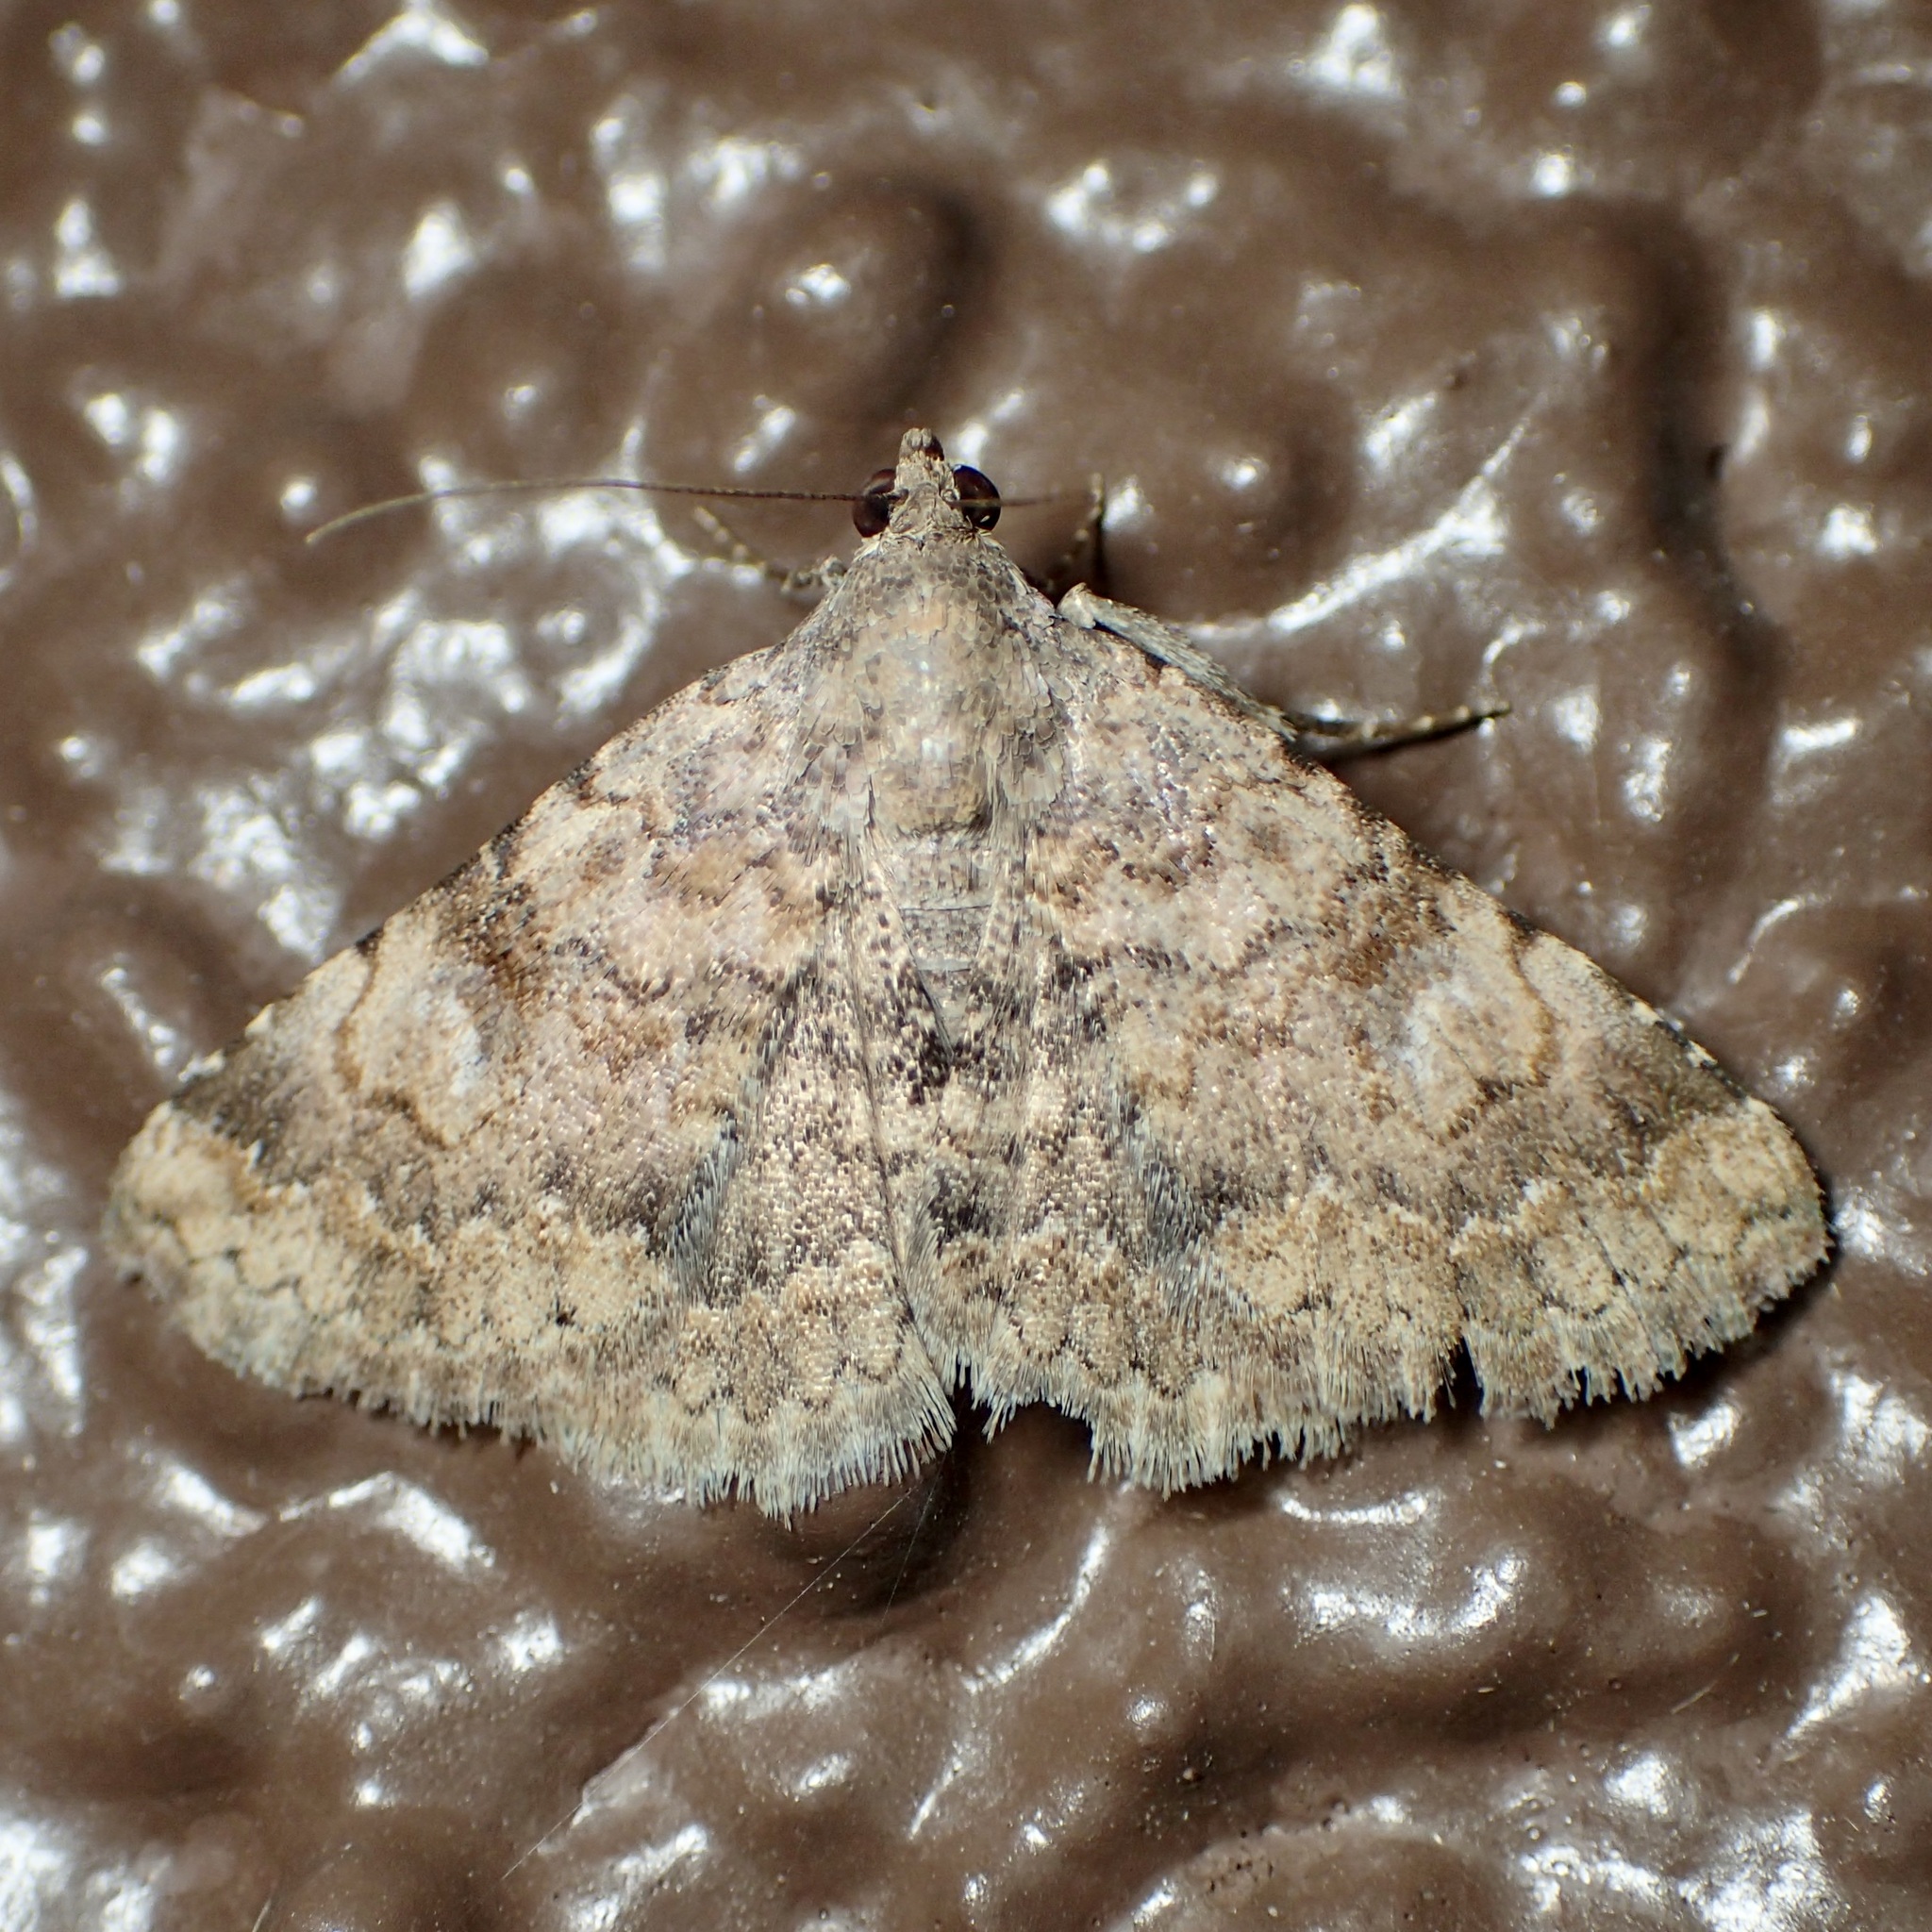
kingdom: Animalia
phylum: Arthropoda
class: Insecta
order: Lepidoptera
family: Erebidae
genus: Toxonprucha
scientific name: Toxonprucha volucris
